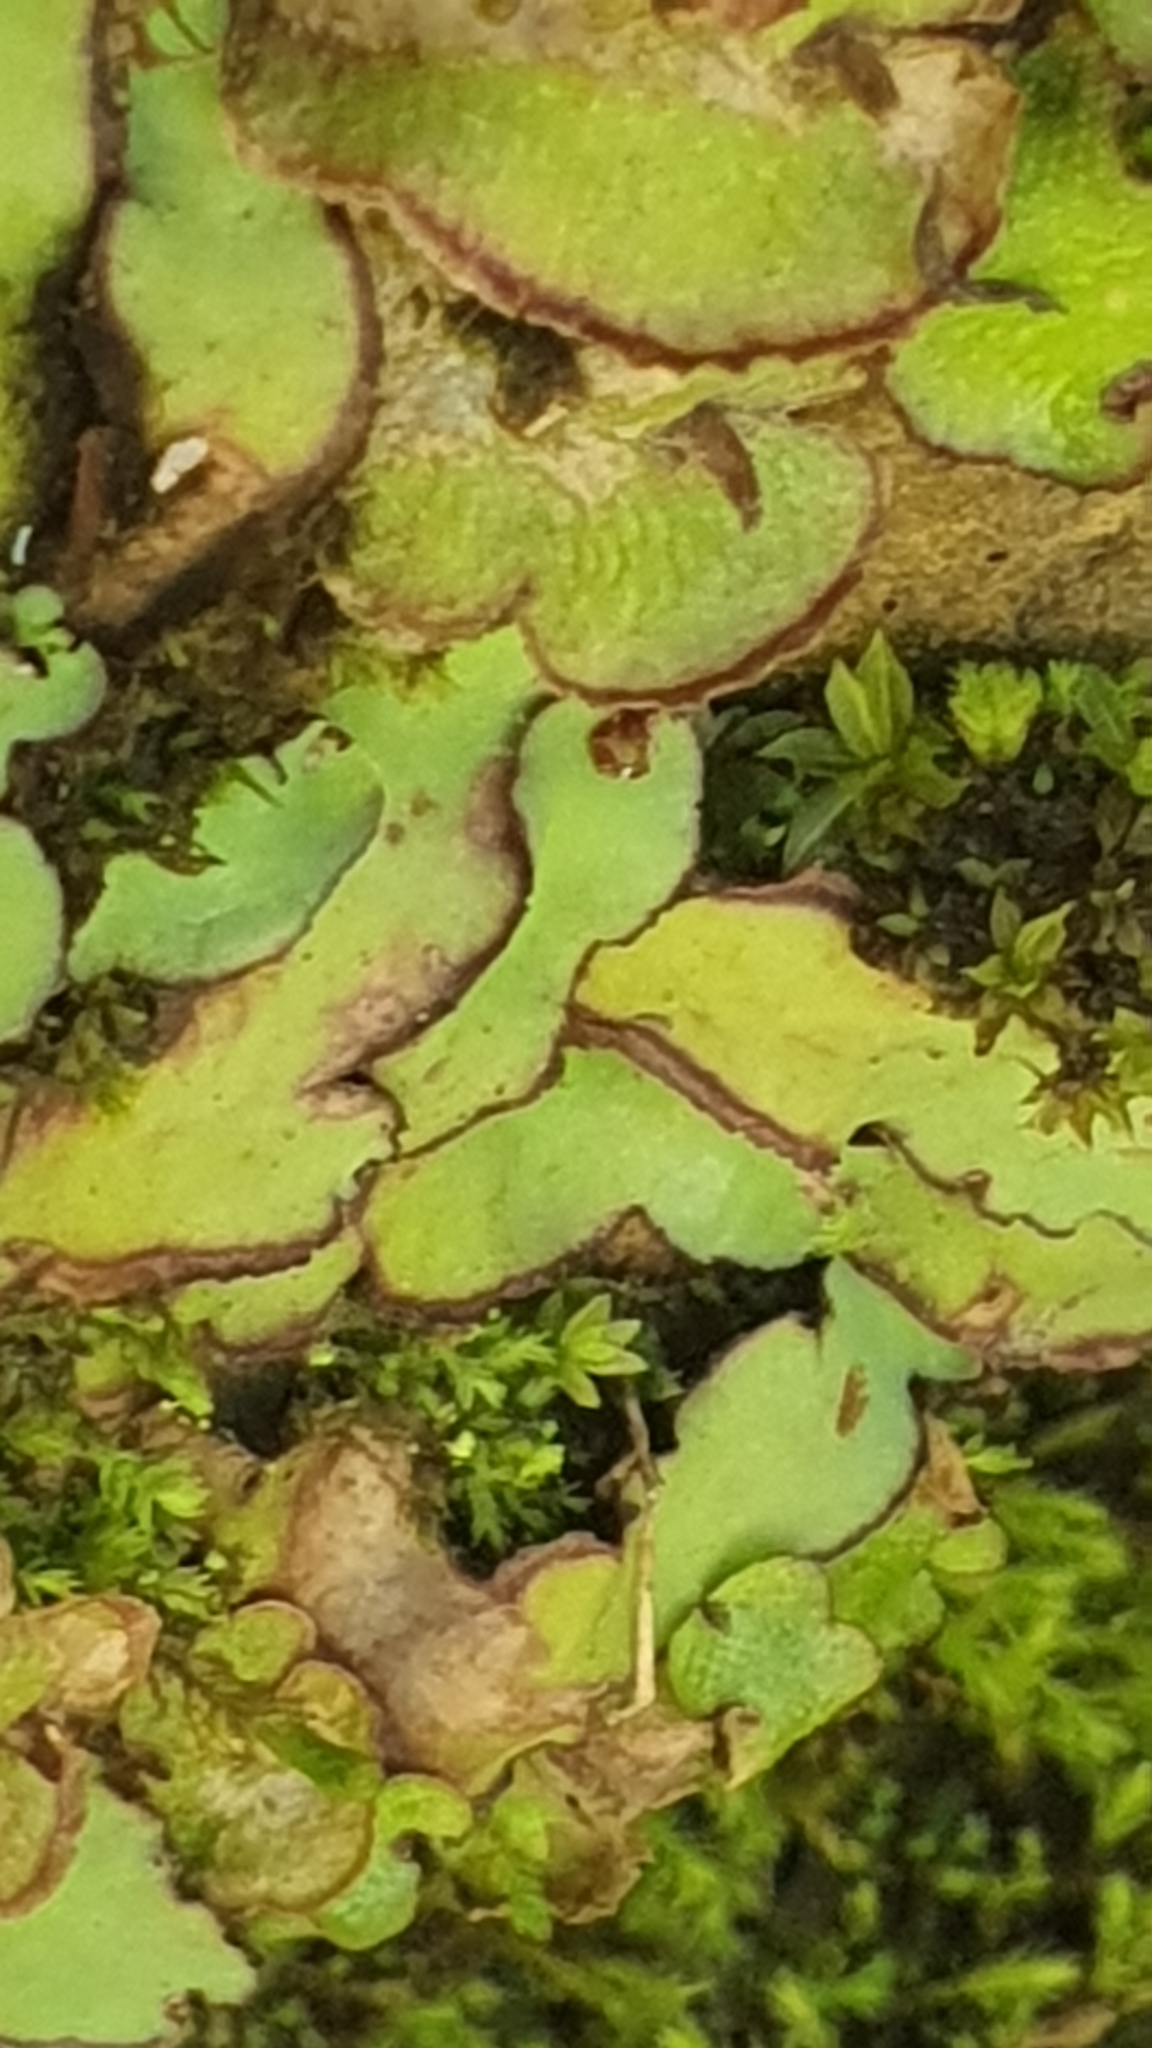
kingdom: Plantae
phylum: Marchantiophyta
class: Marchantiopsida
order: Marchantiales
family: Aytoniaceae
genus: Plagiochasma
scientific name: Plagiochasma rupestre
